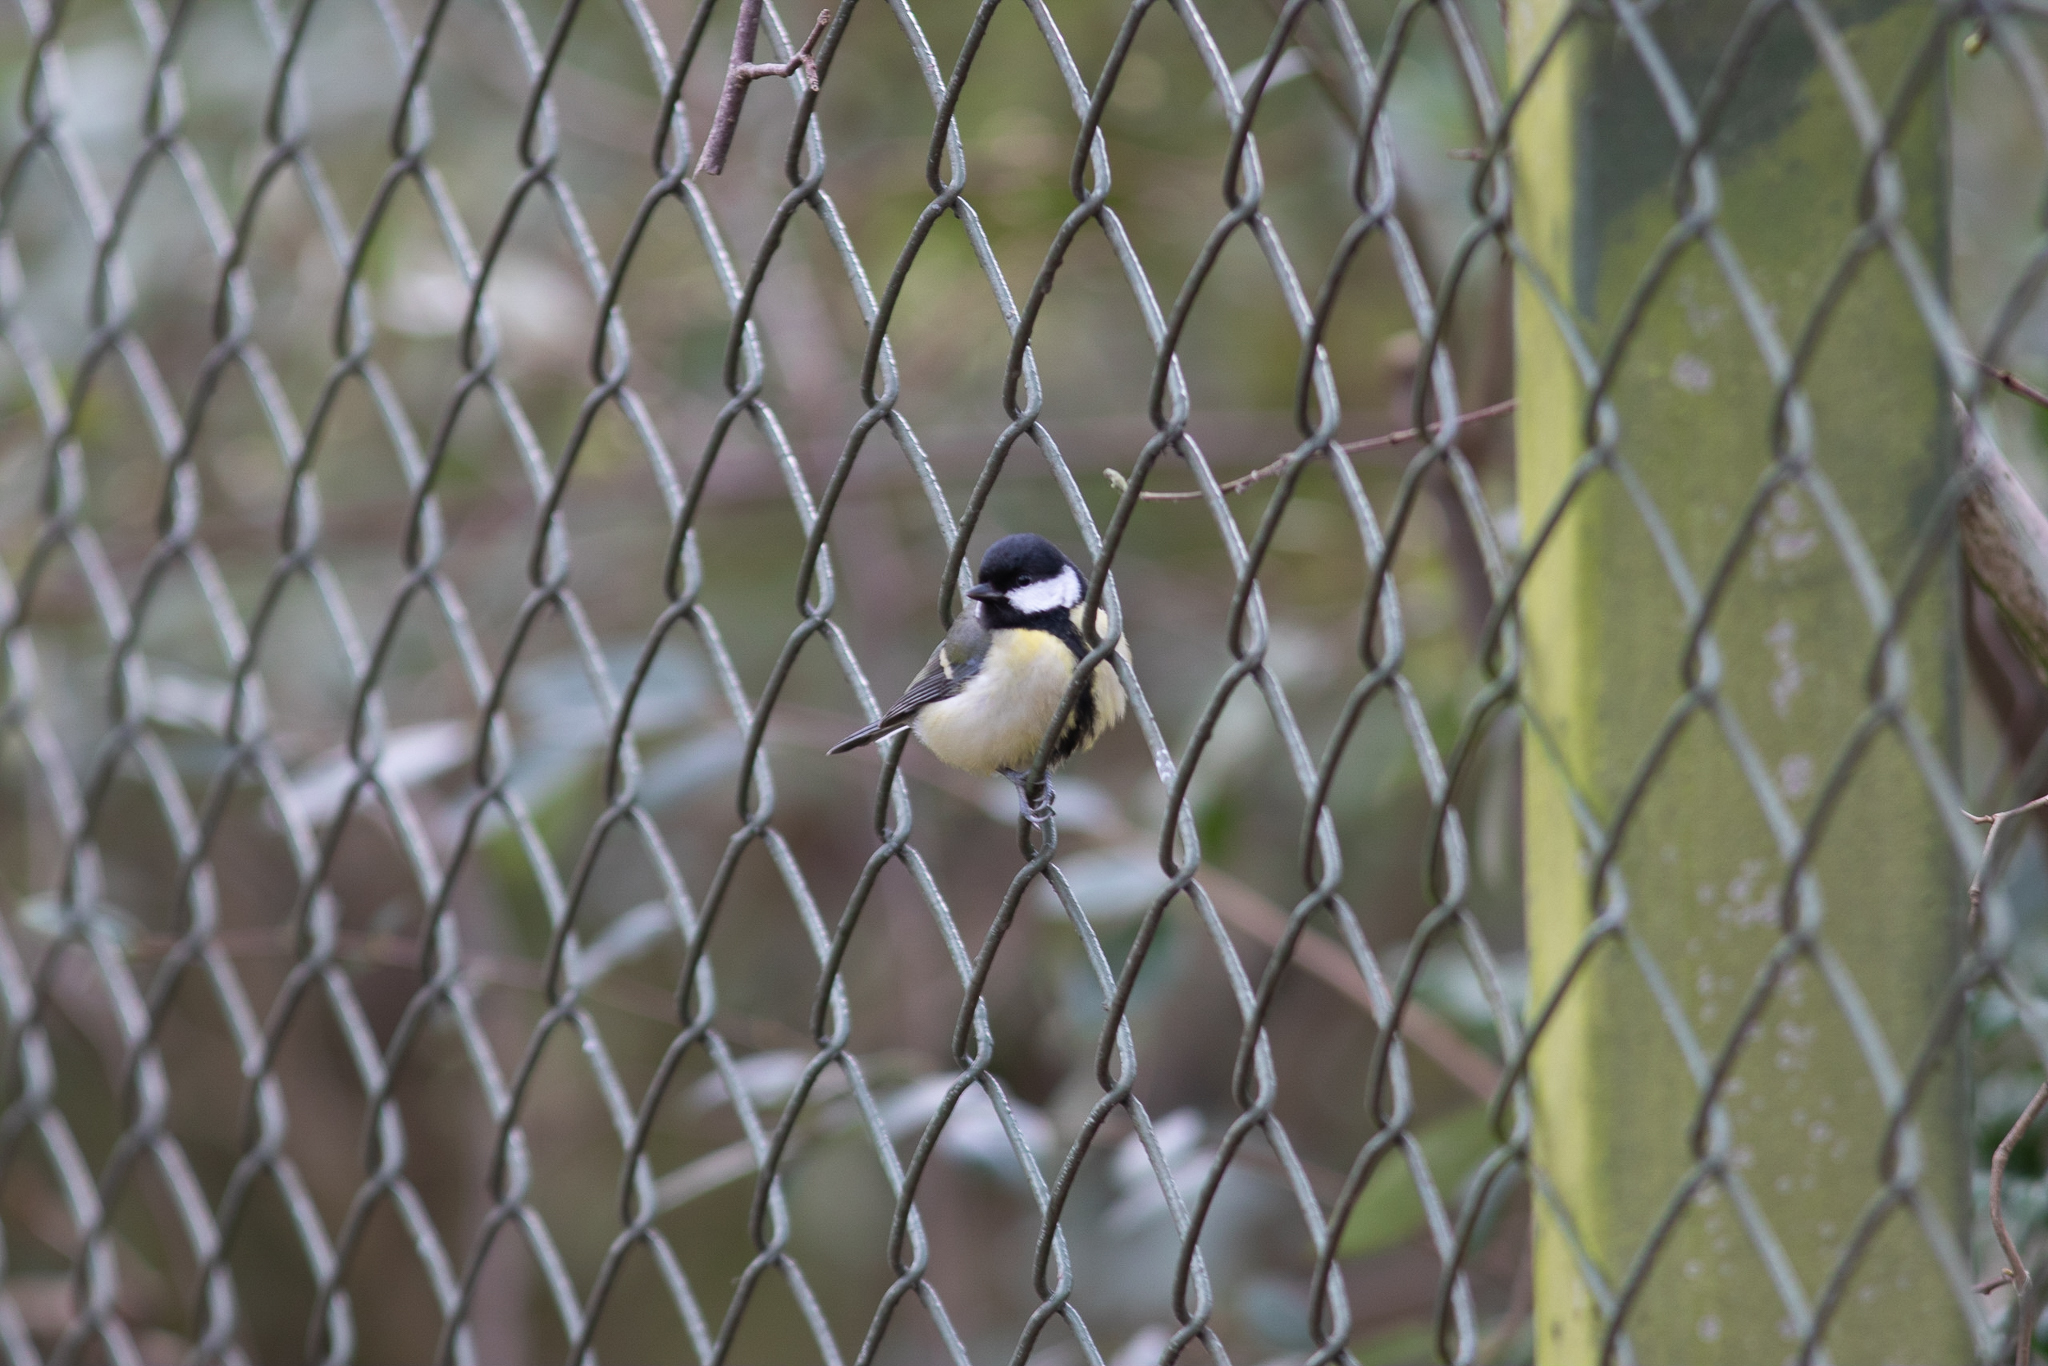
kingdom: Animalia
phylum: Chordata
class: Aves
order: Passeriformes
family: Paridae
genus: Parus
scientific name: Parus major
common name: Great tit
